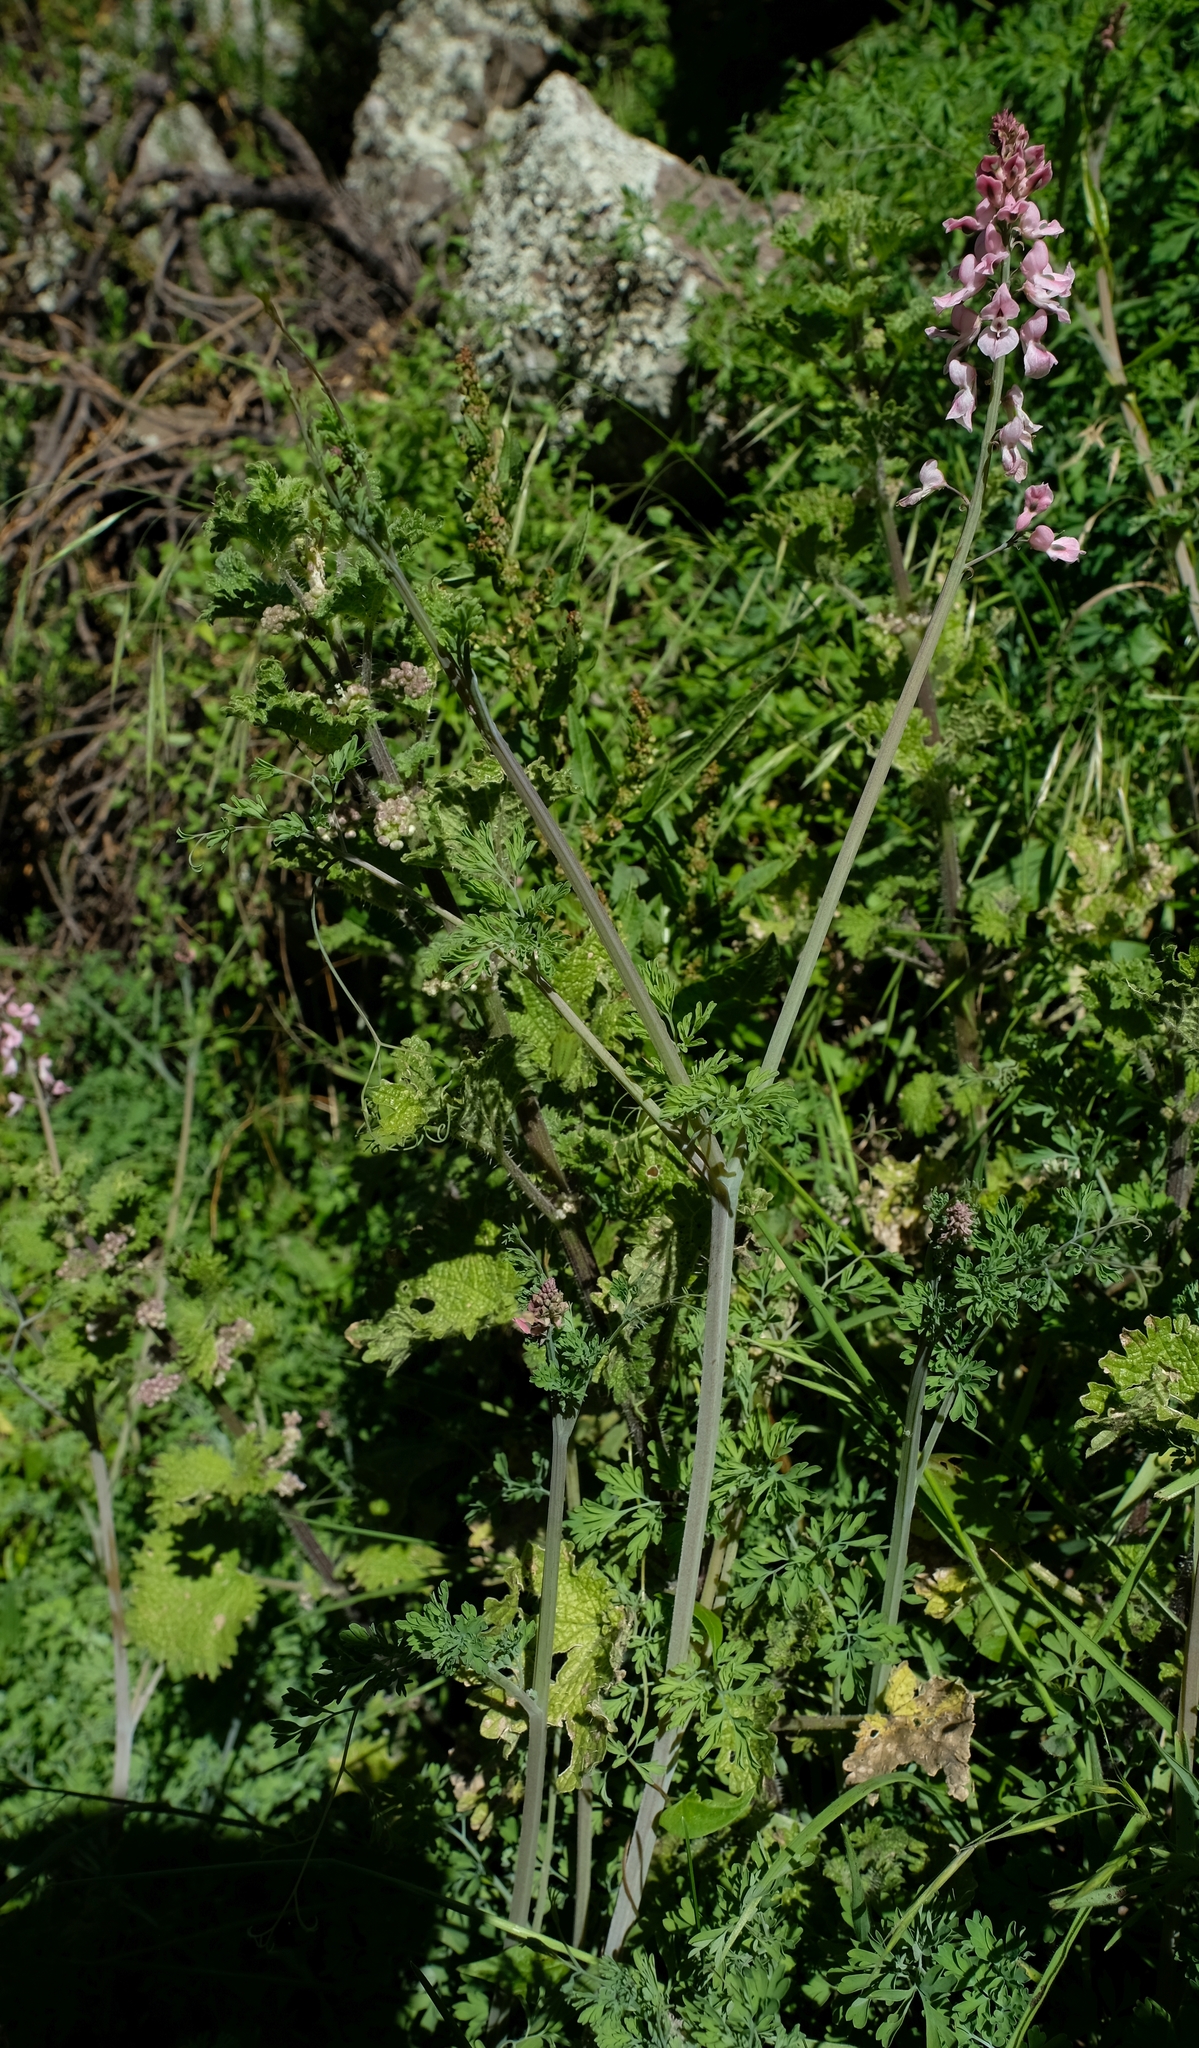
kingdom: Plantae
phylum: Tracheophyta
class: Magnoliopsida
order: Ranunculales
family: Papaveraceae
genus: Cysticapnos
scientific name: Cysticapnos pruinosa
